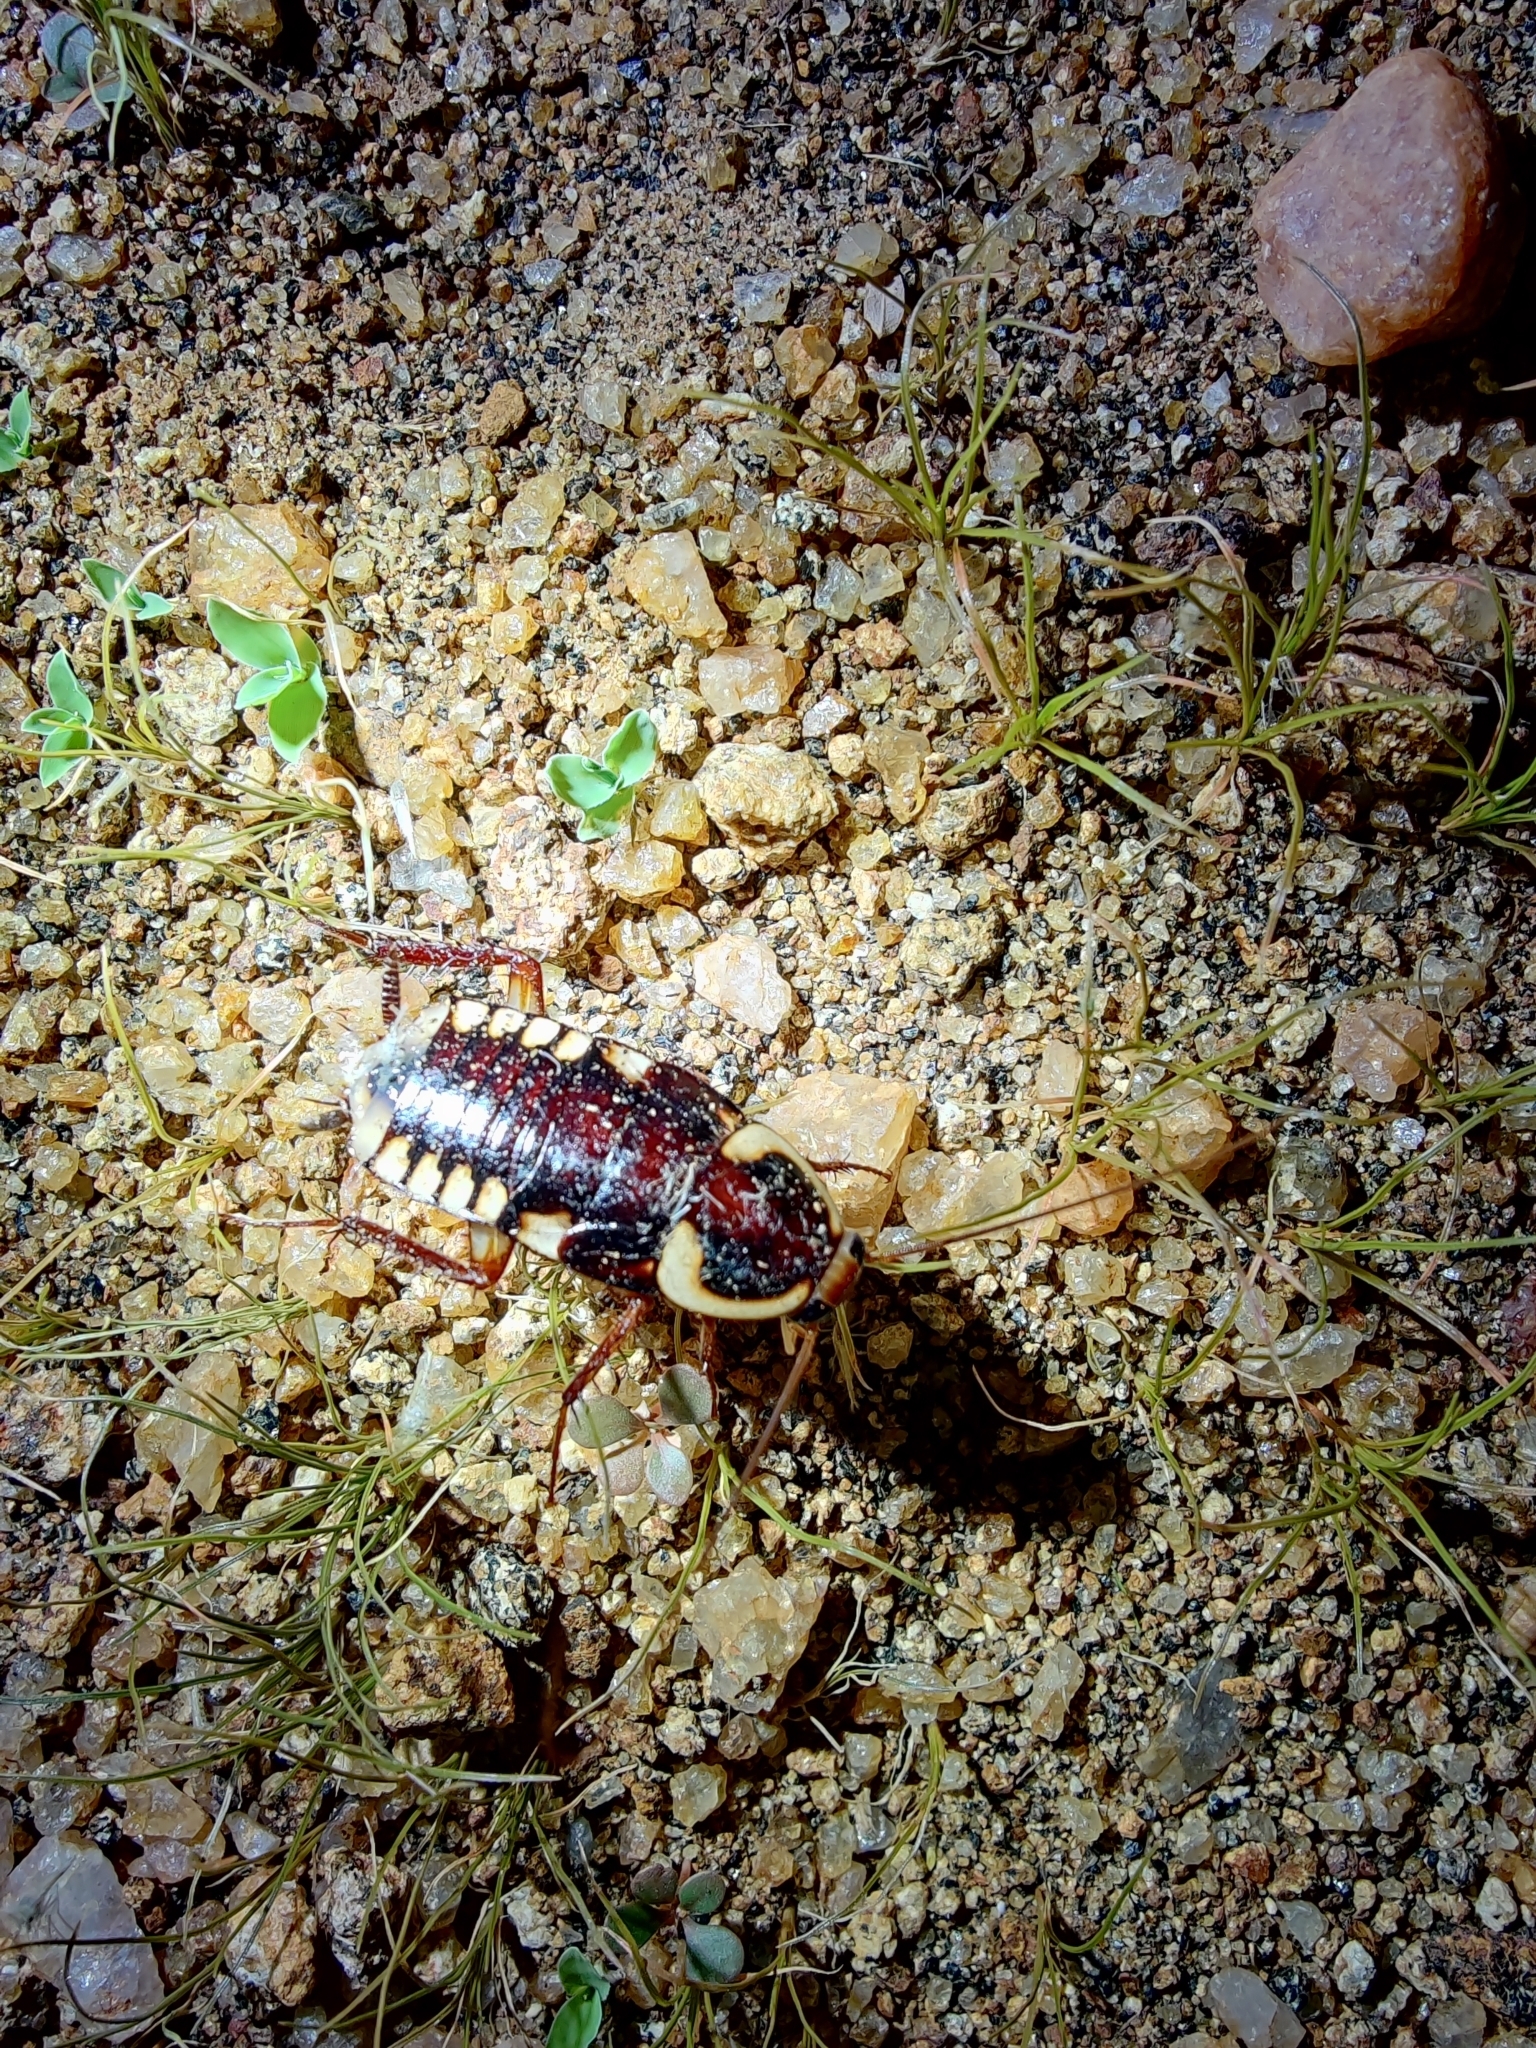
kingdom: Animalia
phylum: Arthropoda
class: Insecta
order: Blattodea
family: Blattidae
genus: Neostylopyga
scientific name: Neostylopyga ornata
